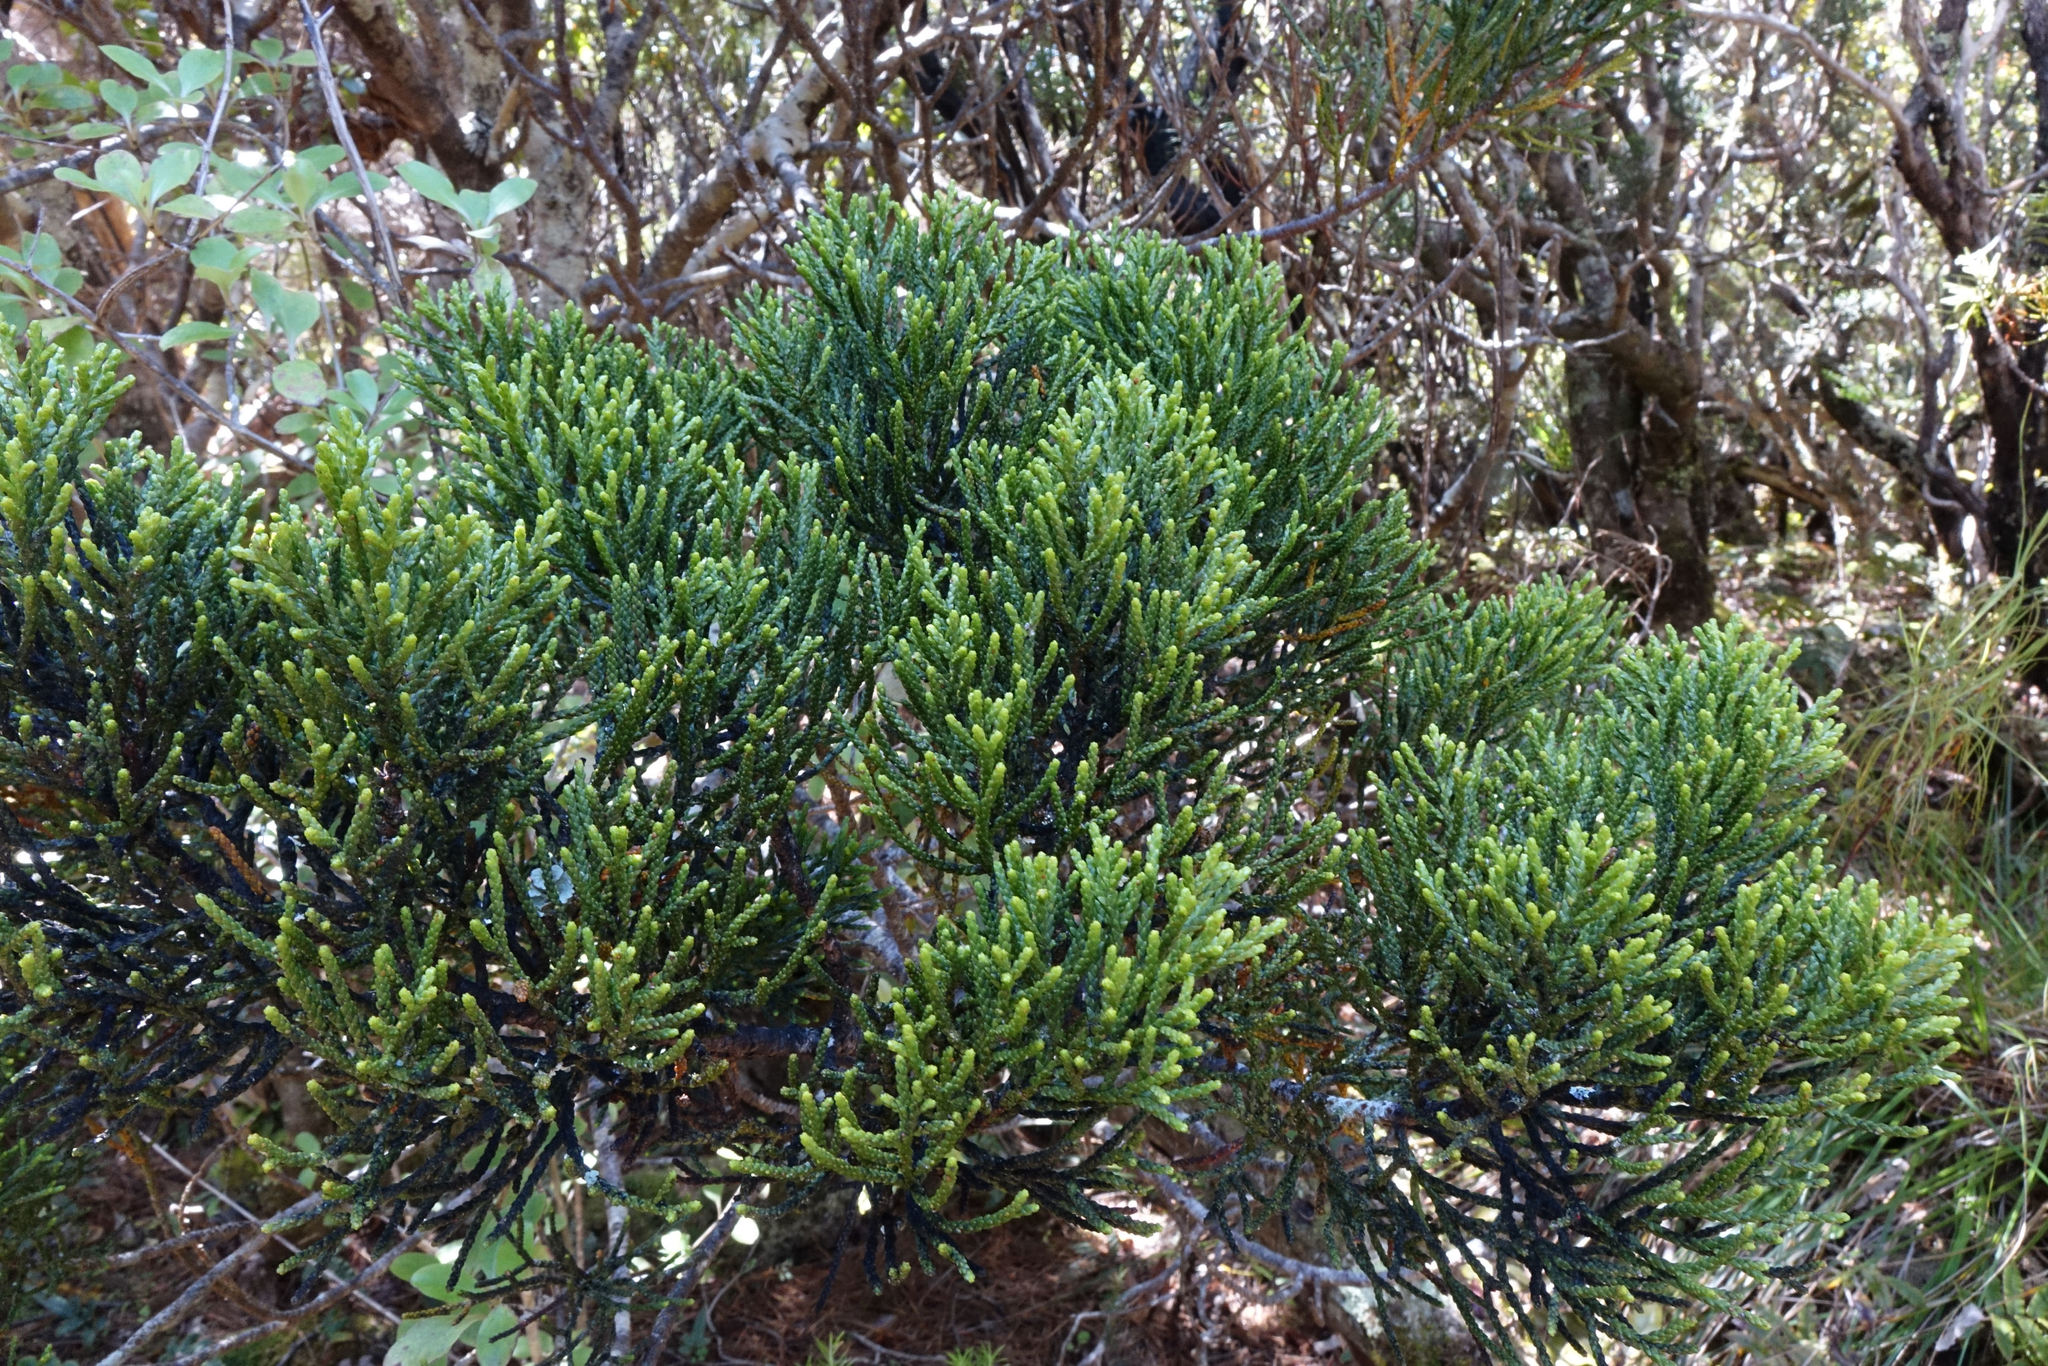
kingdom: Plantae
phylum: Tracheophyta
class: Pinopsida
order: Pinales
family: Podocarpaceae
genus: Halocarpus
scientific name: Halocarpus biformis
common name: Alpine tarwood
